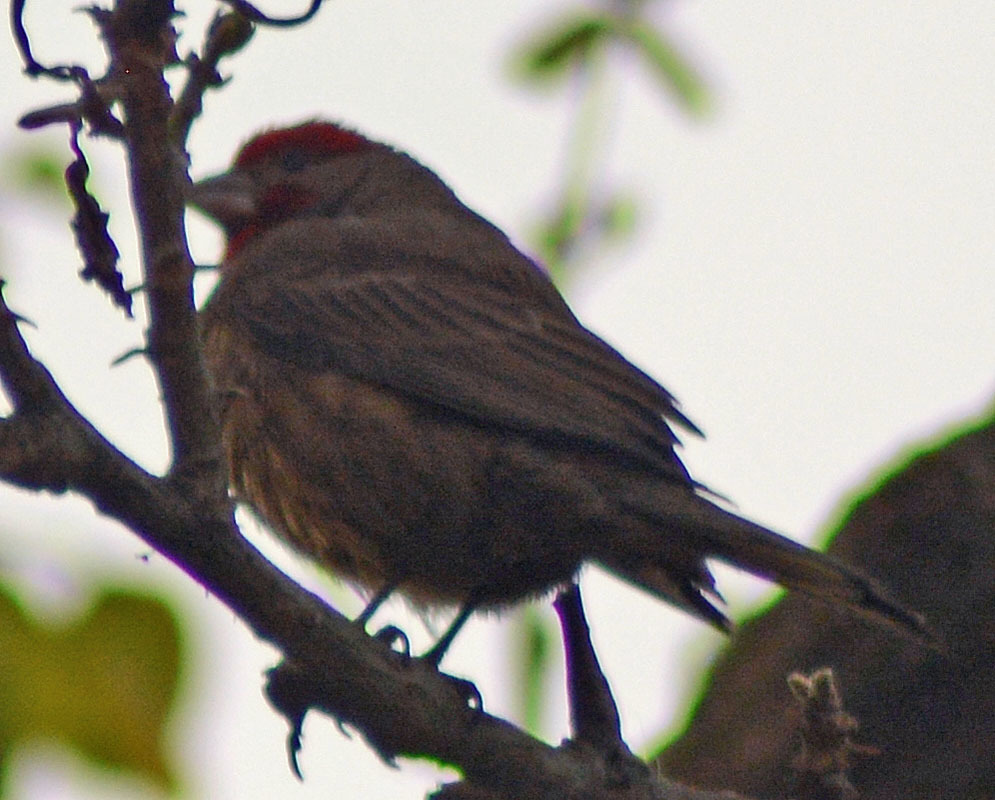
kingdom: Animalia
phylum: Chordata
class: Aves
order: Passeriformes
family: Fringillidae
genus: Haemorhous
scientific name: Haemorhous mexicanus
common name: House finch
